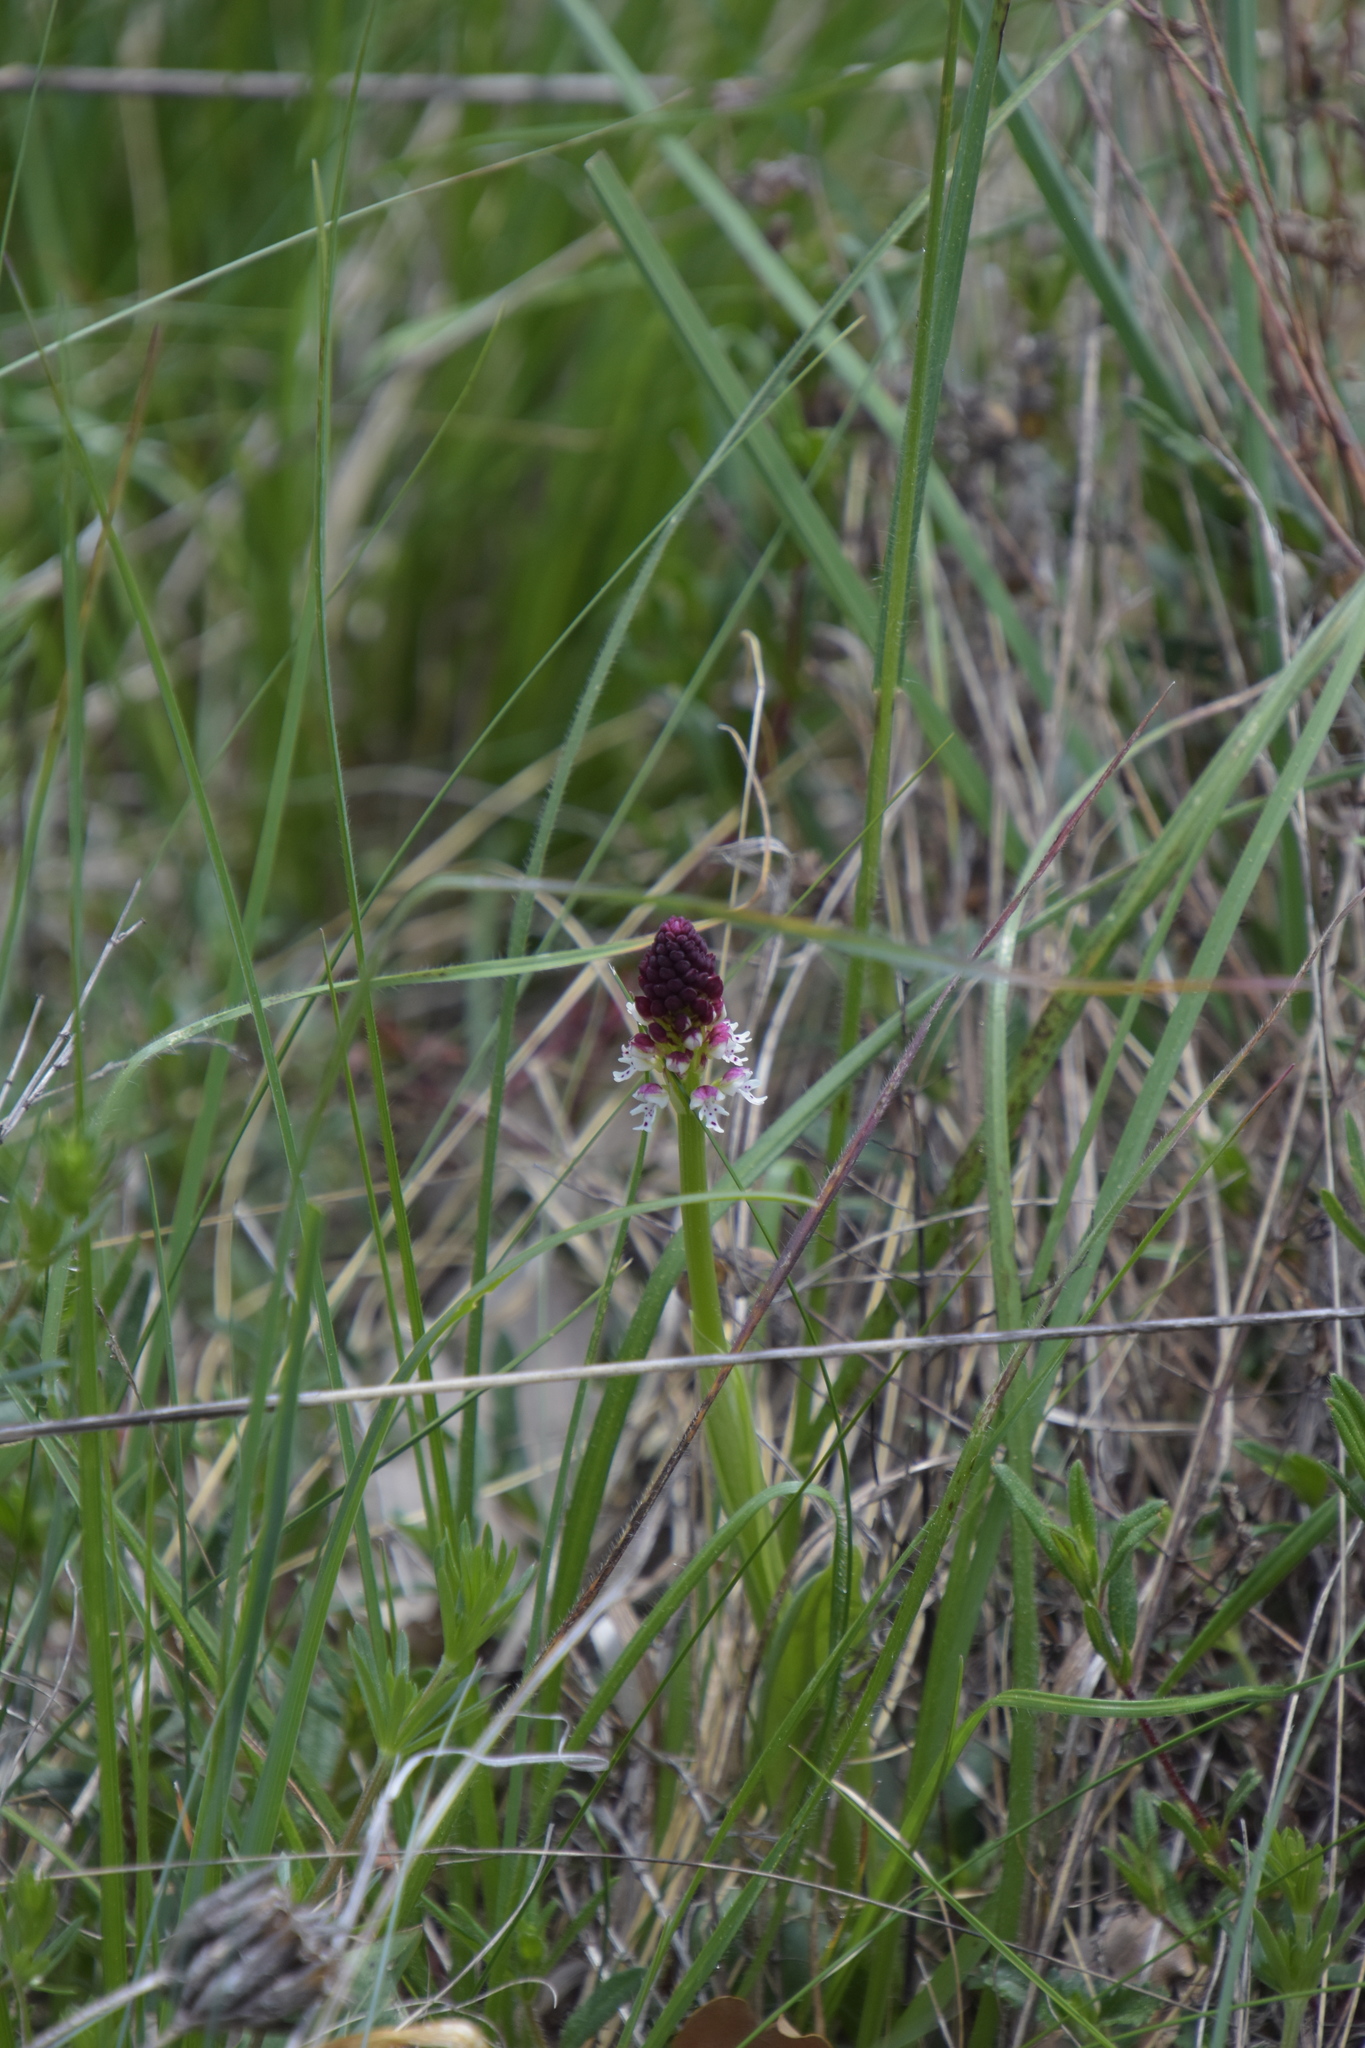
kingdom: Plantae
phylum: Tracheophyta
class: Liliopsida
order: Asparagales
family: Orchidaceae
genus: Neotinea
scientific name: Neotinea ustulata
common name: Burnt orchid
